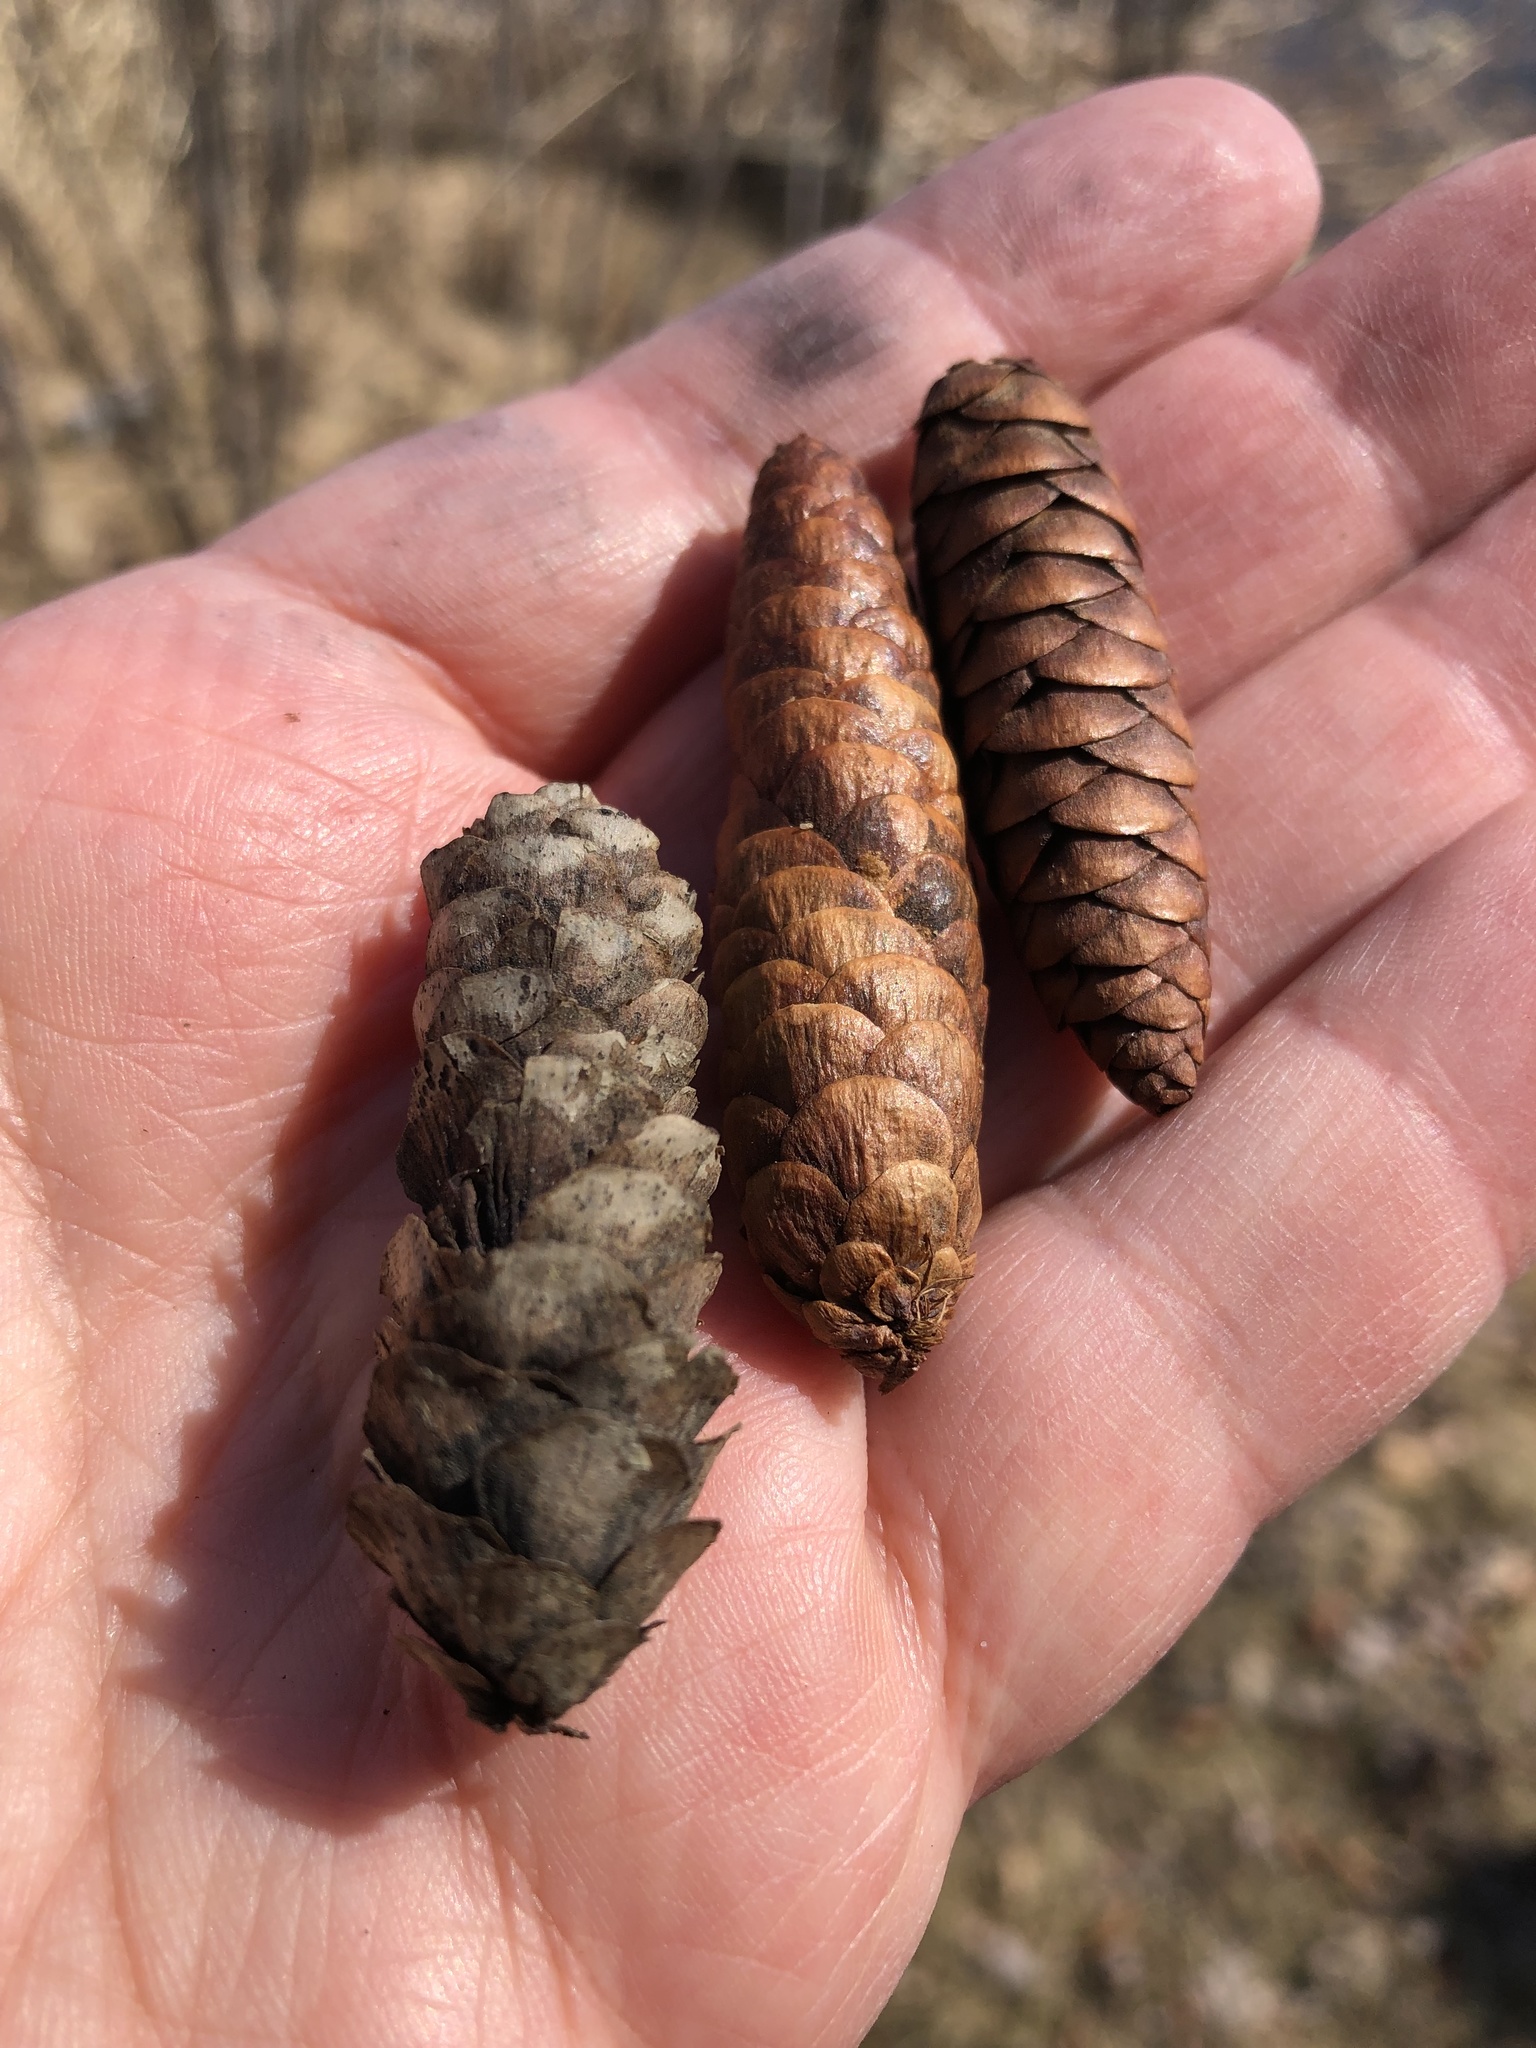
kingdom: Plantae
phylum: Tracheophyta
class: Pinopsida
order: Pinales
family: Pinaceae
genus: Picea
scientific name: Picea glauca
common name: White spruce
